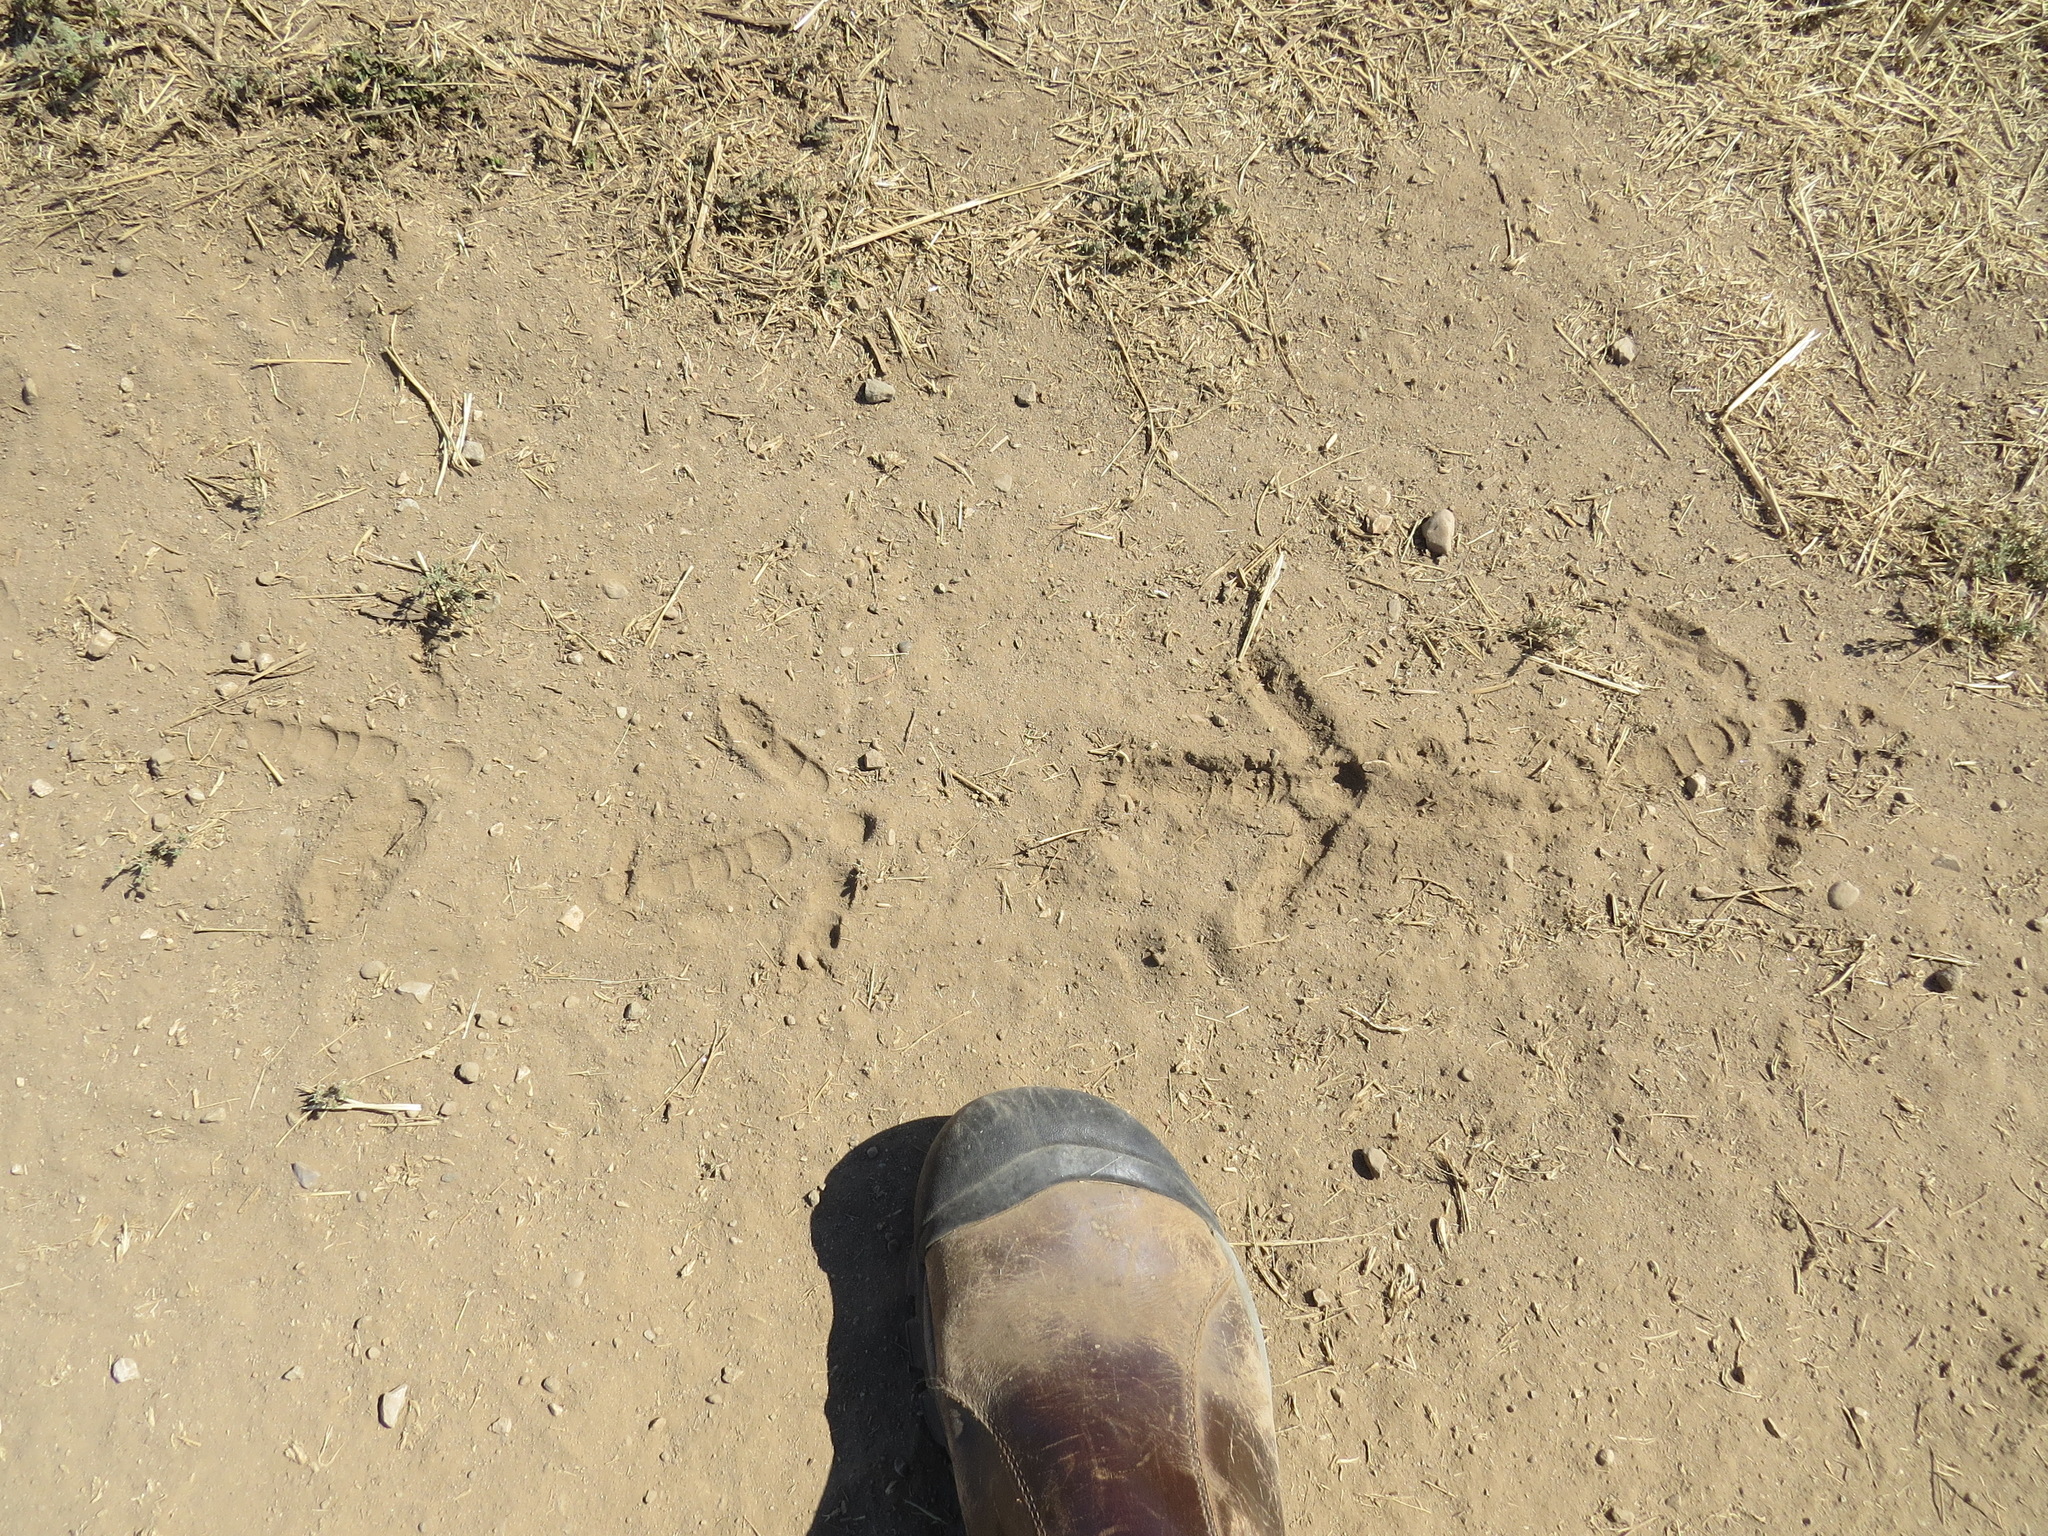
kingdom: Animalia
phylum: Chordata
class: Aves
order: Galliformes
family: Phasianidae
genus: Meleagris
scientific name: Meleagris gallopavo
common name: Wild turkey
